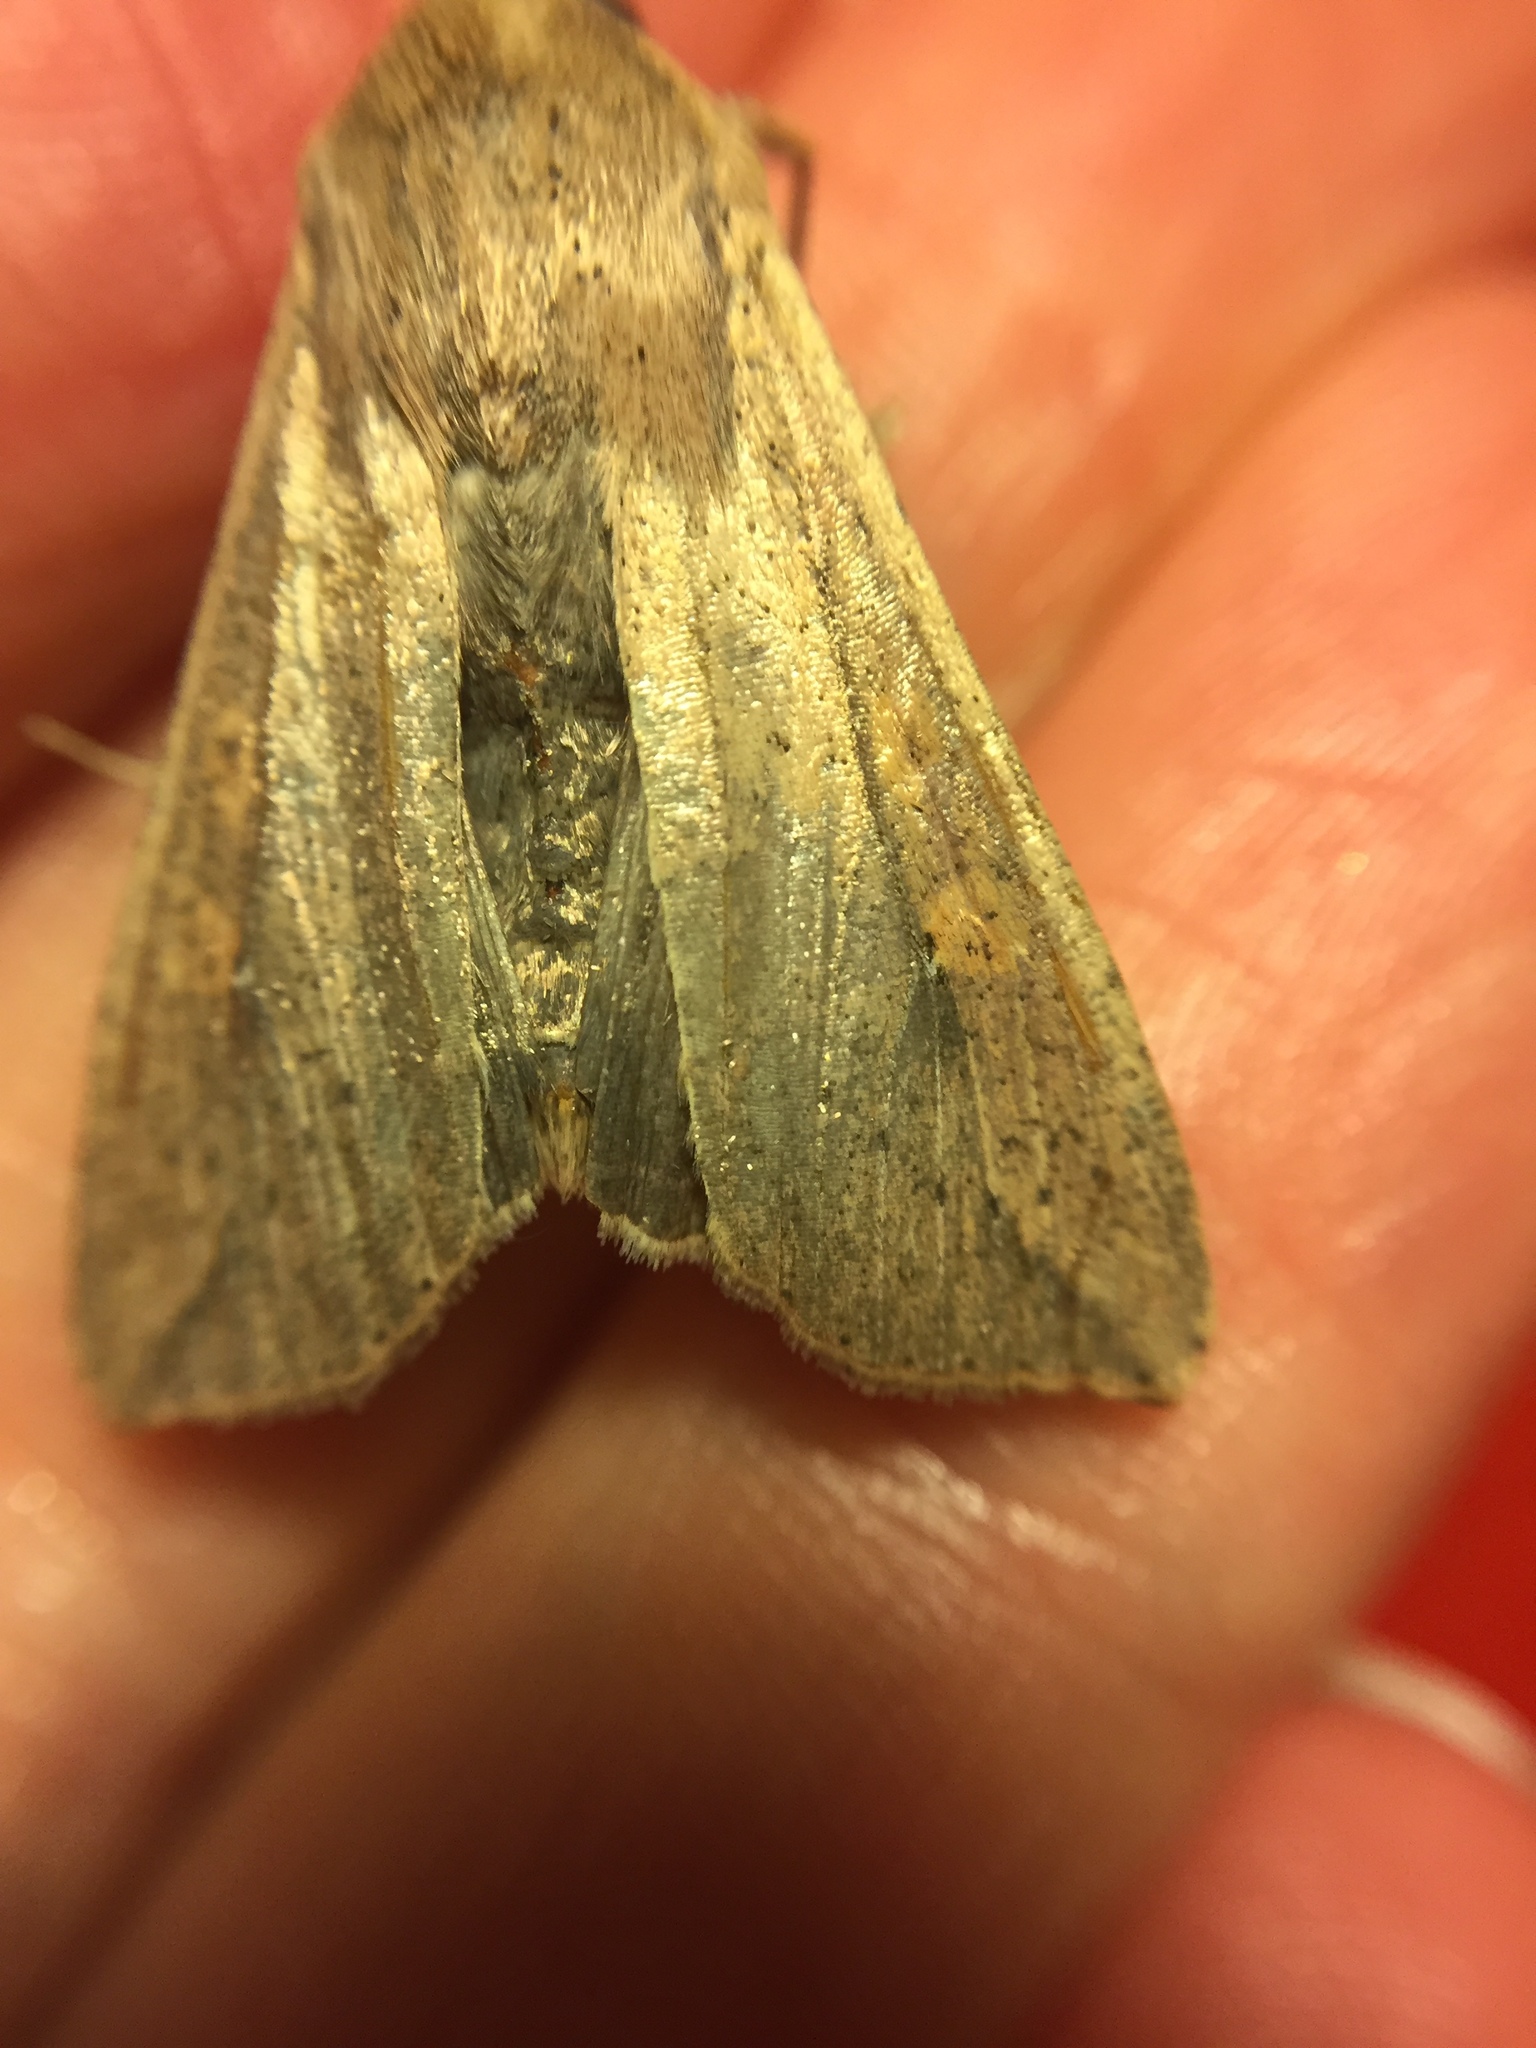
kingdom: Animalia
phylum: Arthropoda
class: Insecta
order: Lepidoptera
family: Noctuidae
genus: Mythimna
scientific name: Mythimna unipuncta
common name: White-speck
